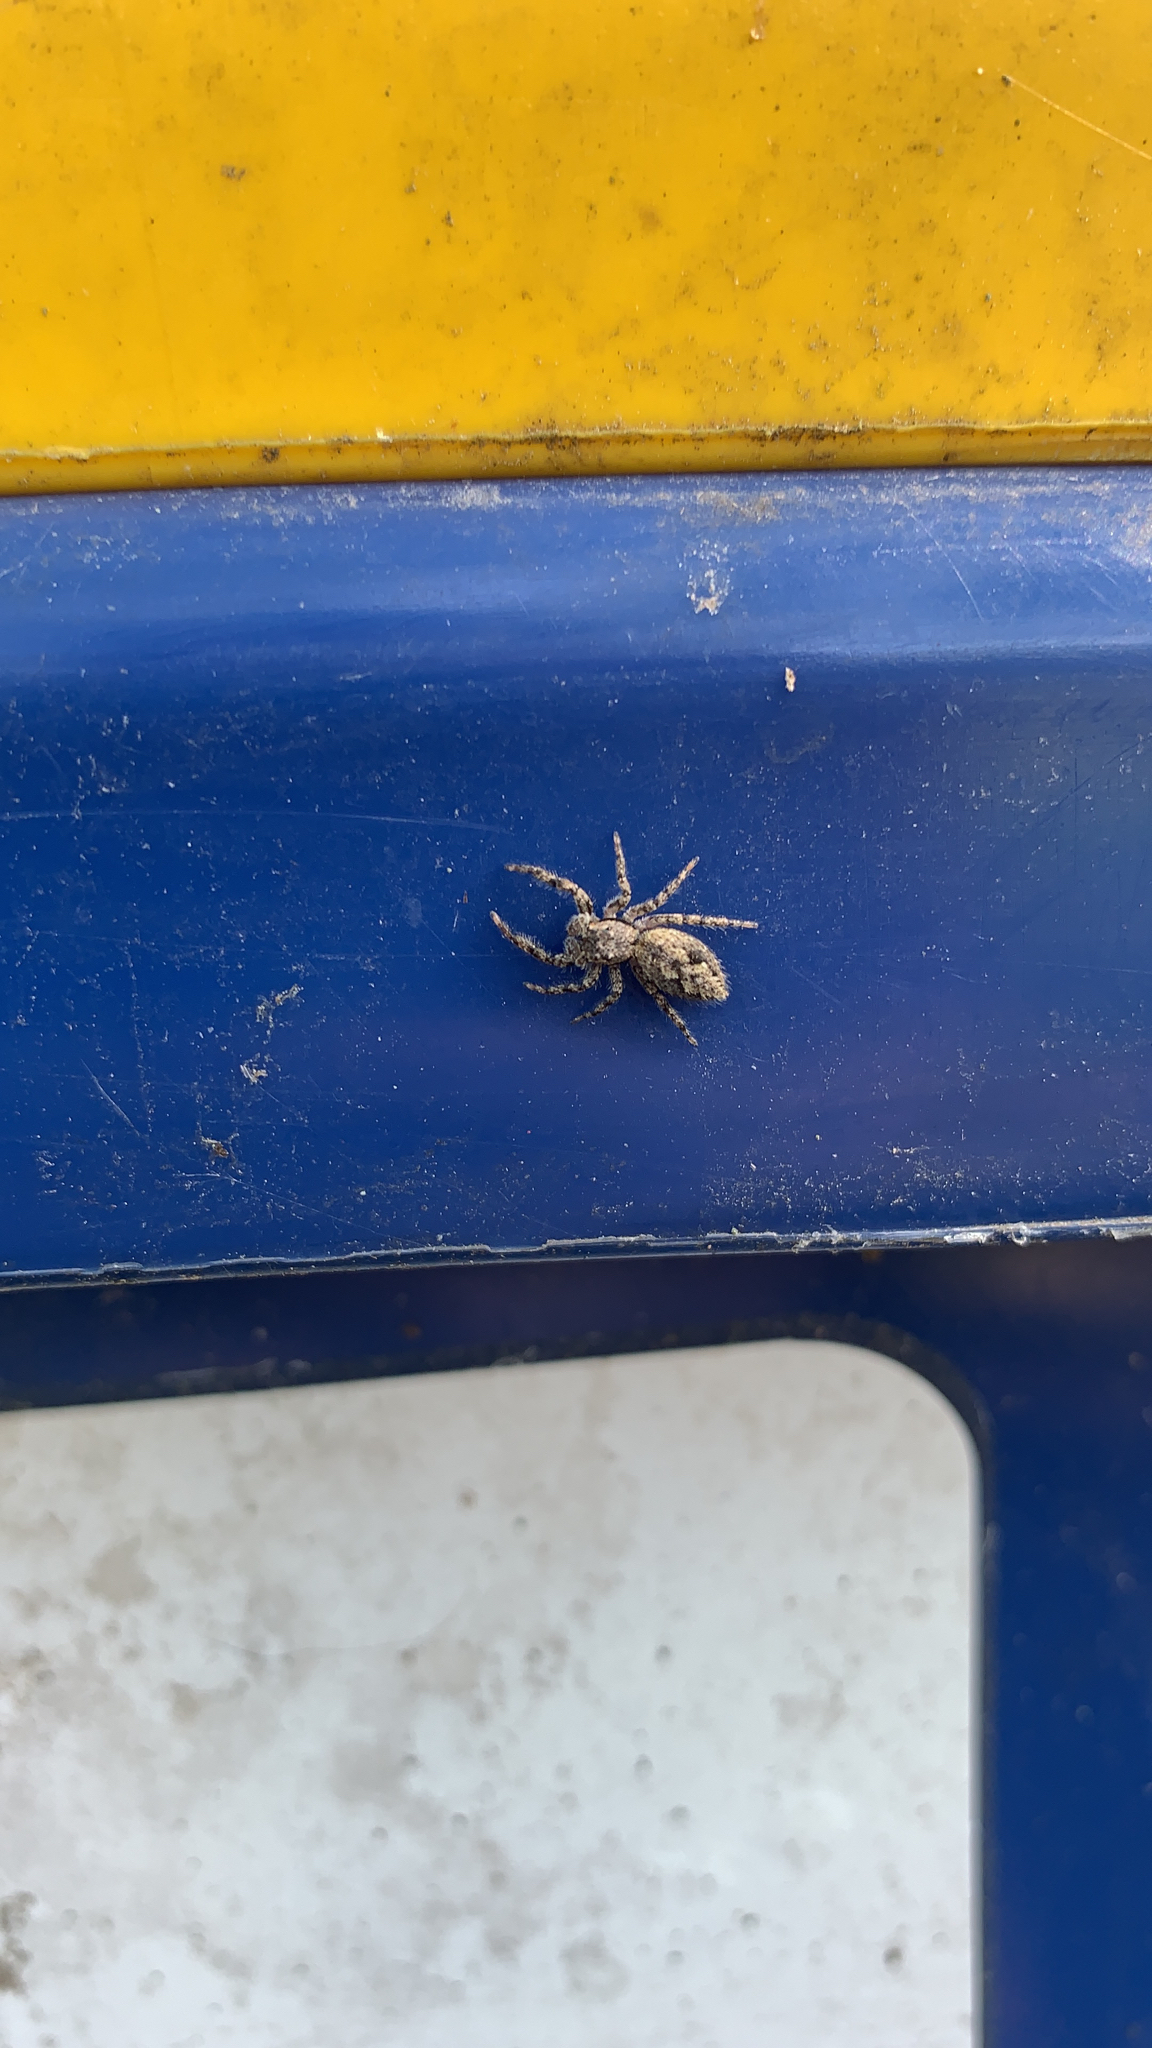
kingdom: Animalia
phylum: Arthropoda
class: Arachnida
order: Araneae
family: Salticidae
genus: Platycryptus
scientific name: Platycryptus undatus
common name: Tan jumping spider
